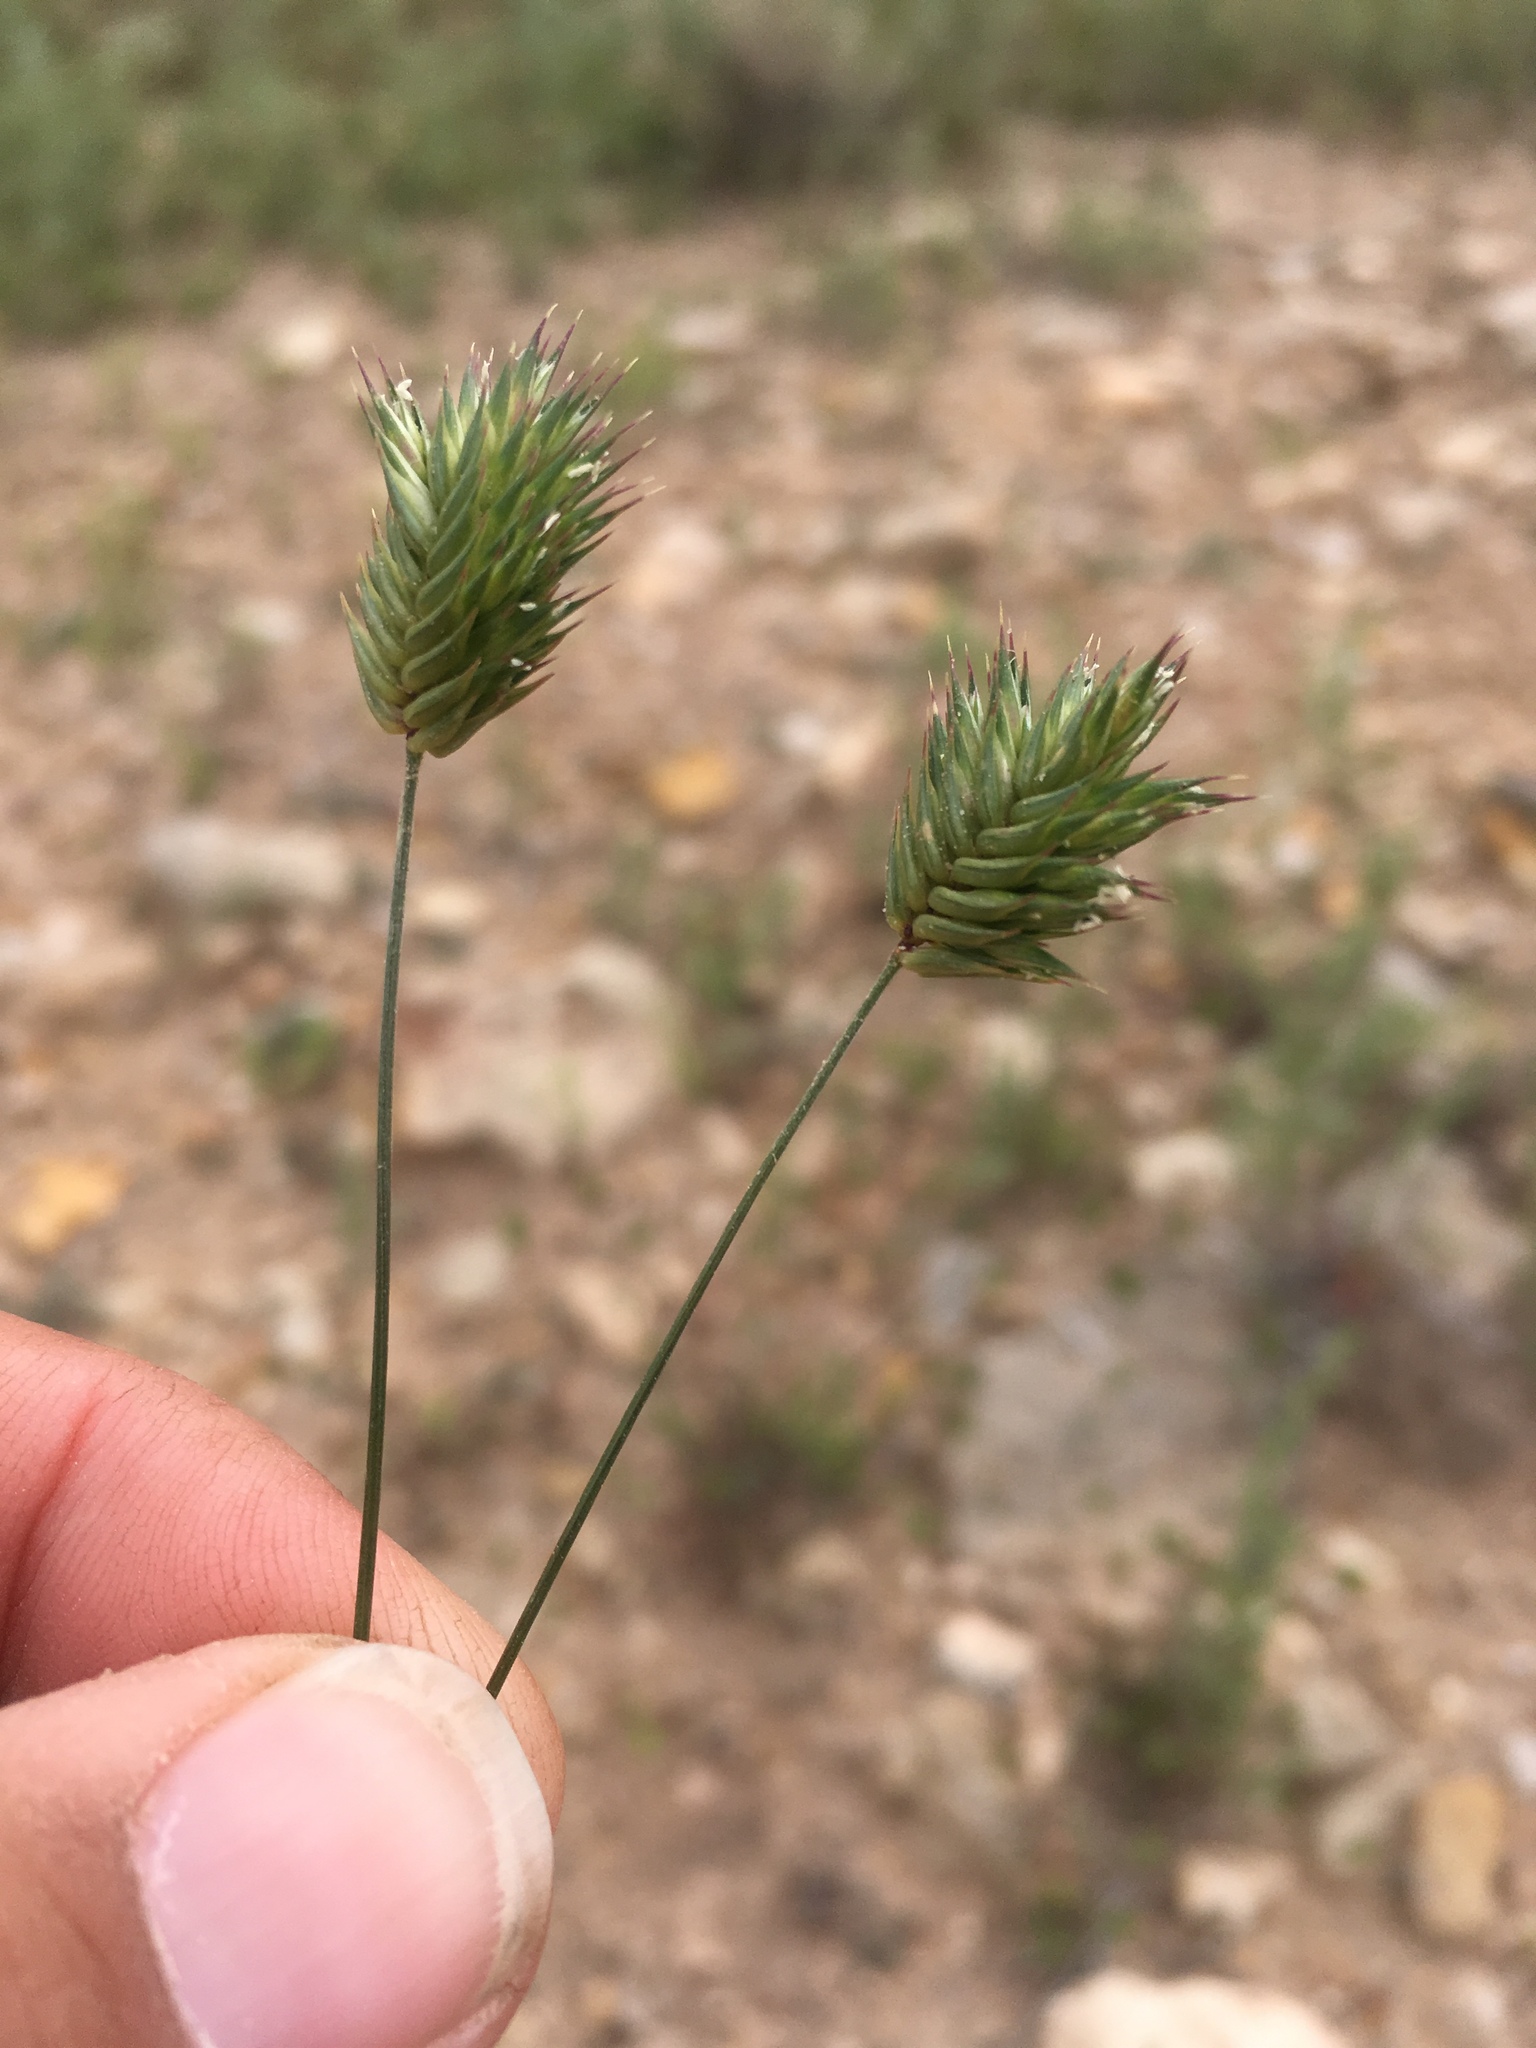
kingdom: Plantae
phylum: Tracheophyta
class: Liliopsida
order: Poales
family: Poaceae
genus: Eremopyrum
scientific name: Eremopyrum triticeum
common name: Annual wheatgrass
